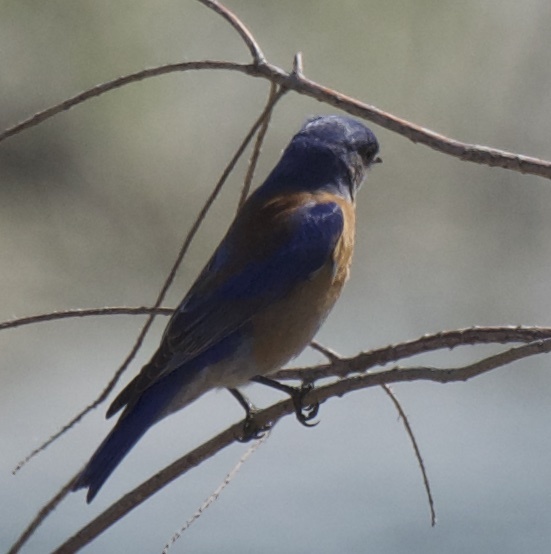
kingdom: Animalia
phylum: Chordata
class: Aves
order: Passeriformes
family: Turdidae
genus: Sialia
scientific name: Sialia mexicana
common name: Western bluebird
